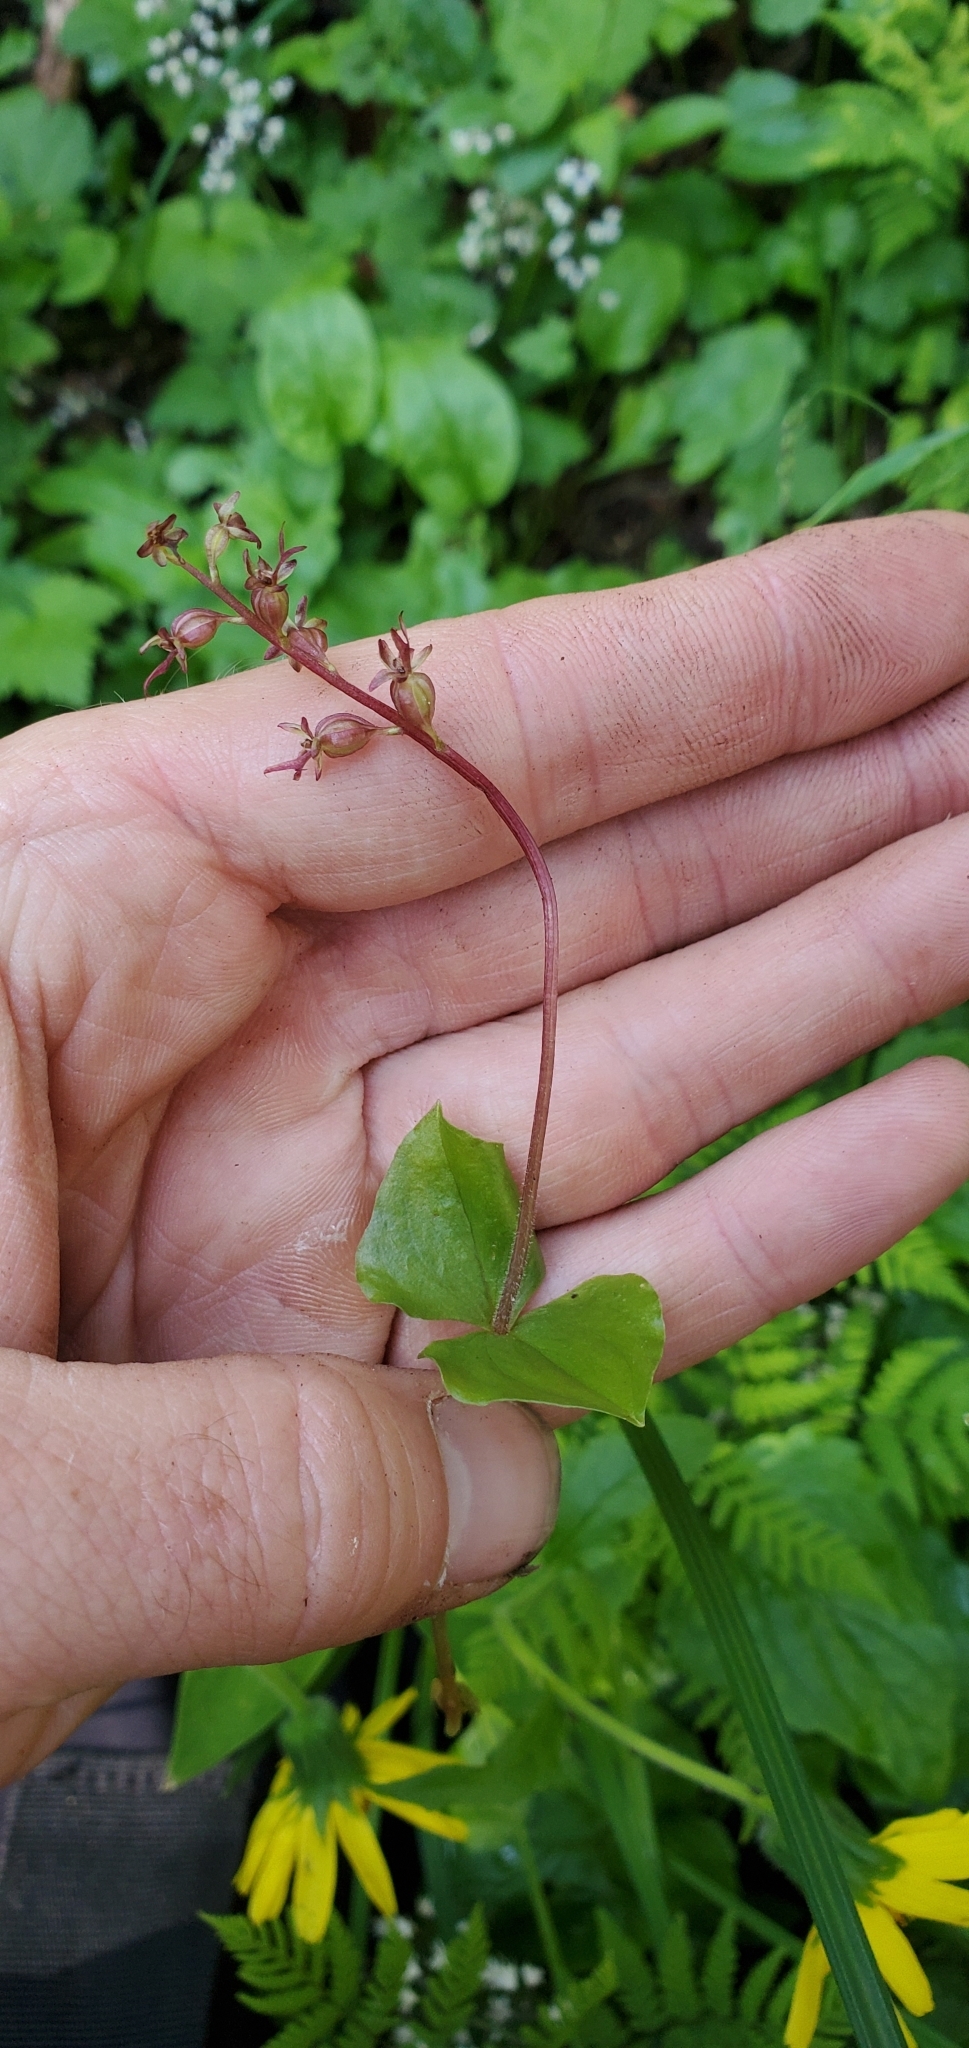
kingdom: Plantae
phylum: Tracheophyta
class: Liliopsida
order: Asparagales
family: Orchidaceae
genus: Neottia
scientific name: Neottia cordata
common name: Lesser twayblade
